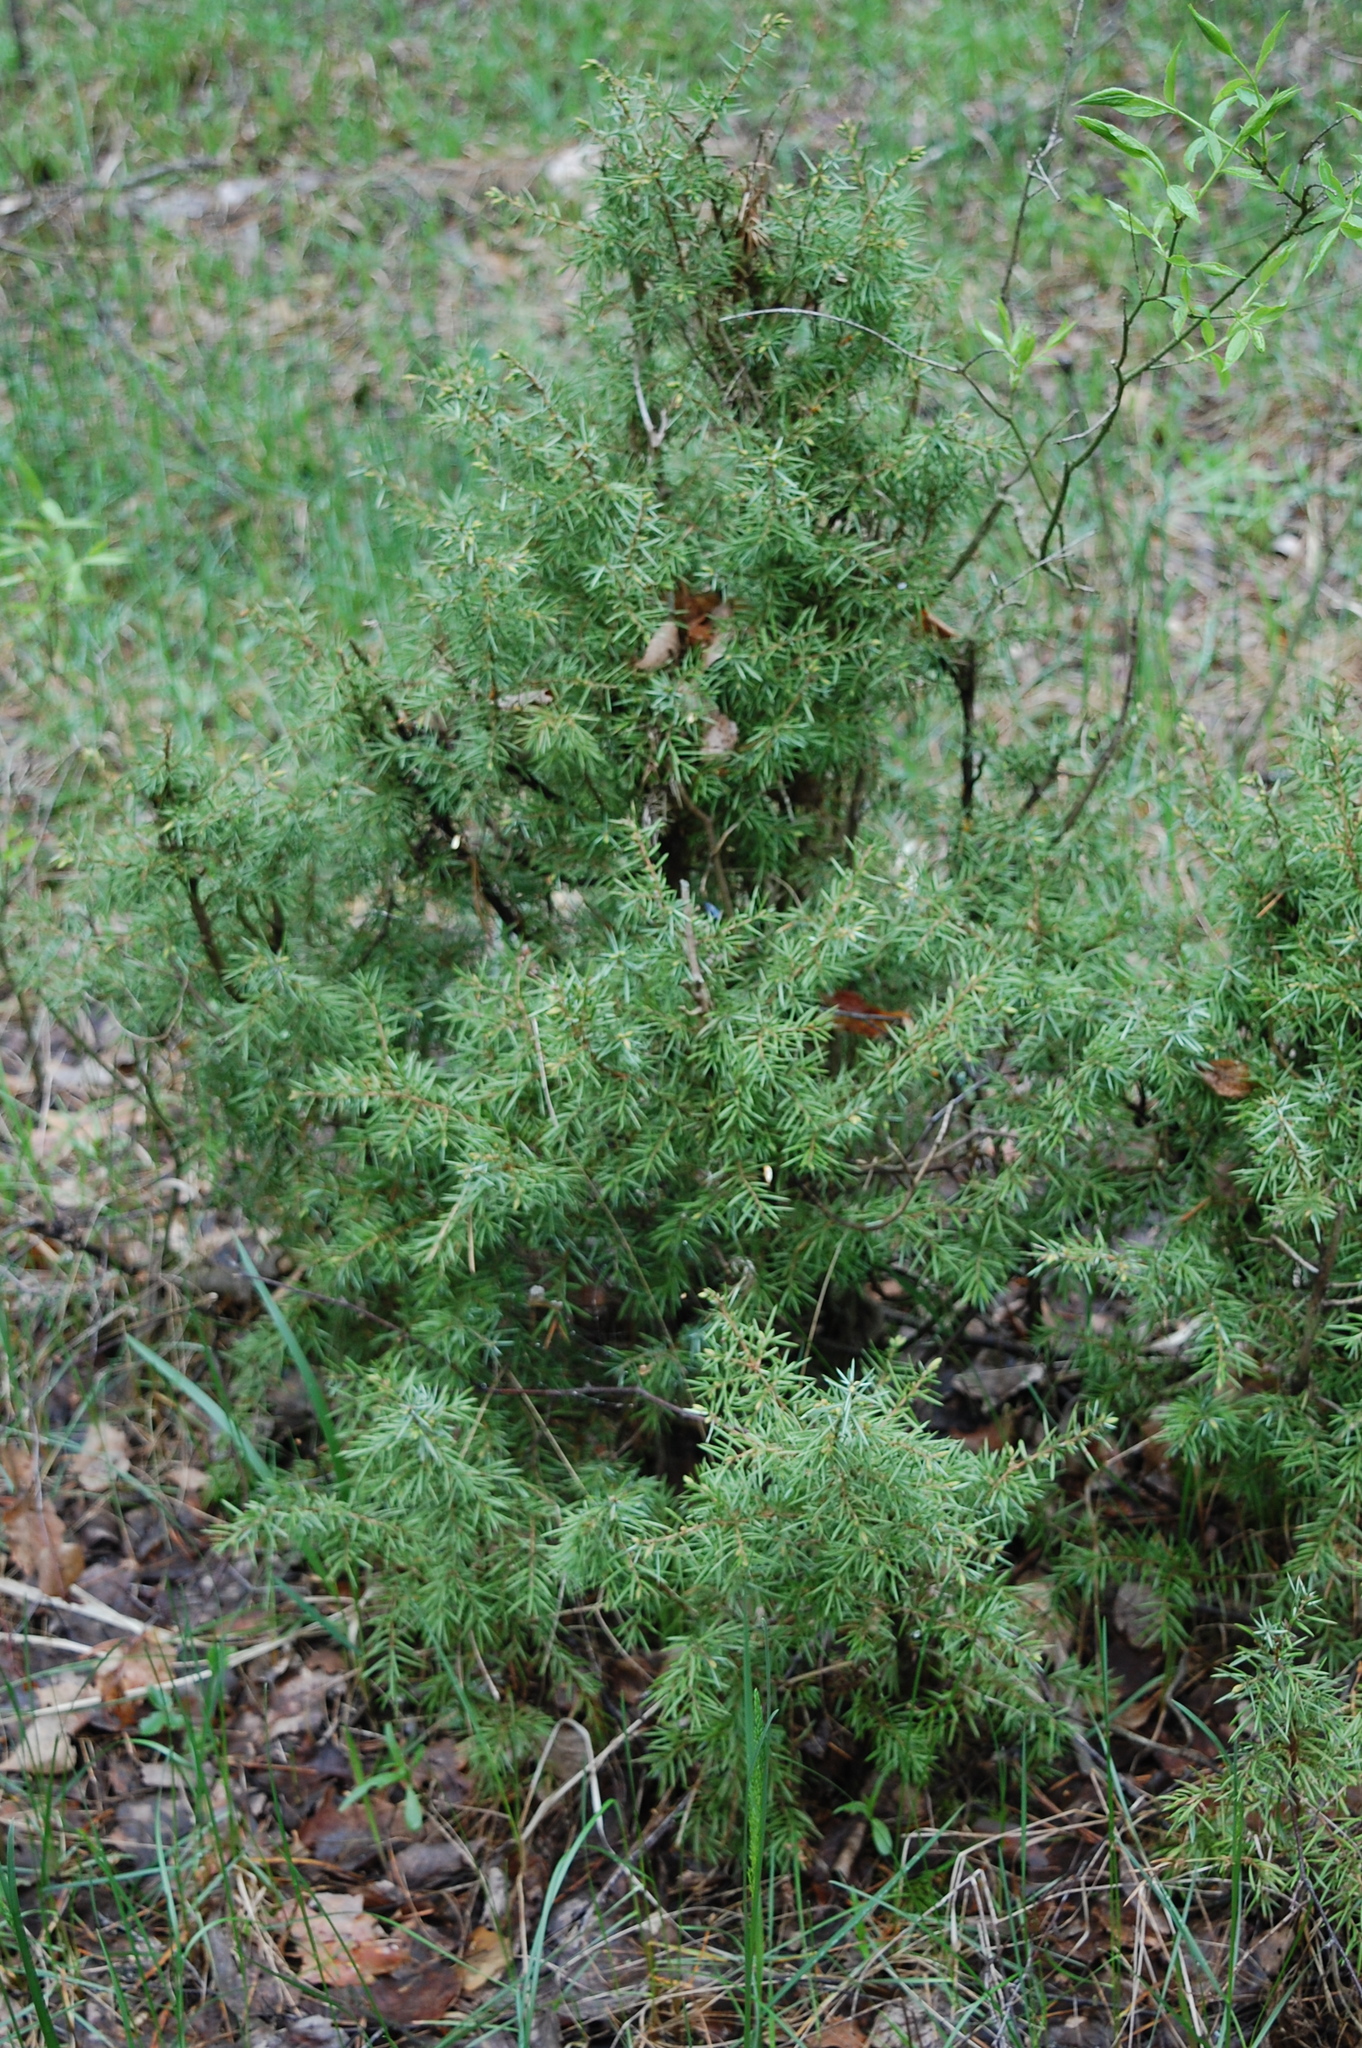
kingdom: Plantae
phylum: Tracheophyta
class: Pinopsida
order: Pinales
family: Cupressaceae
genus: Juniperus
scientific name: Juniperus communis
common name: Common juniper
